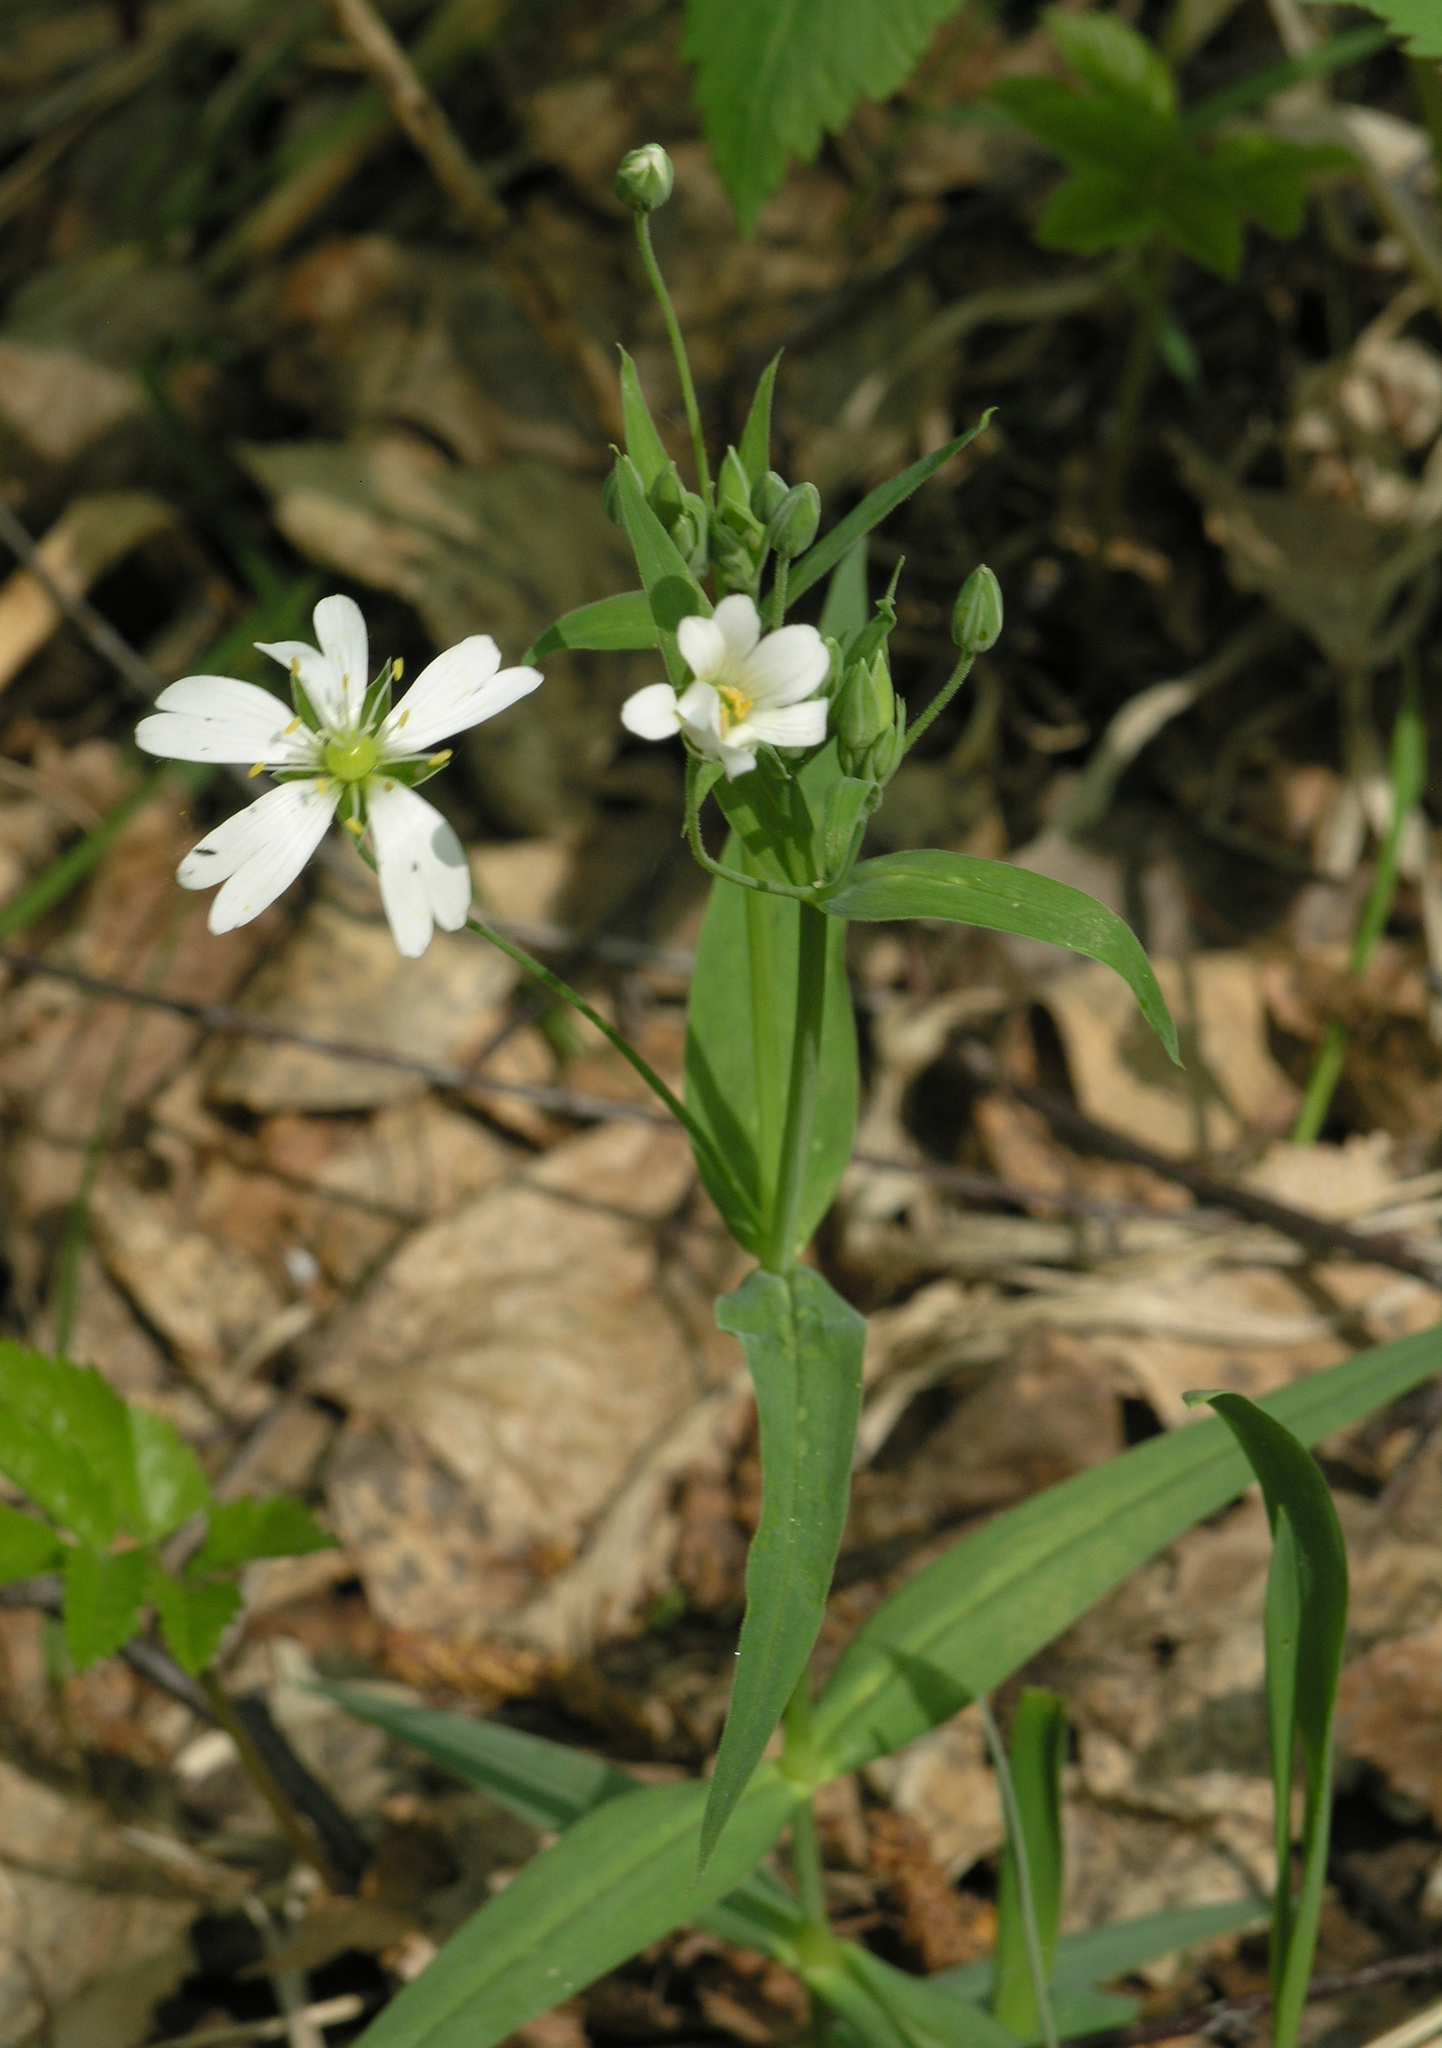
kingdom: Plantae
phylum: Tracheophyta
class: Magnoliopsida
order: Caryophyllales
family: Caryophyllaceae
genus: Rabelera
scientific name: Rabelera holostea
